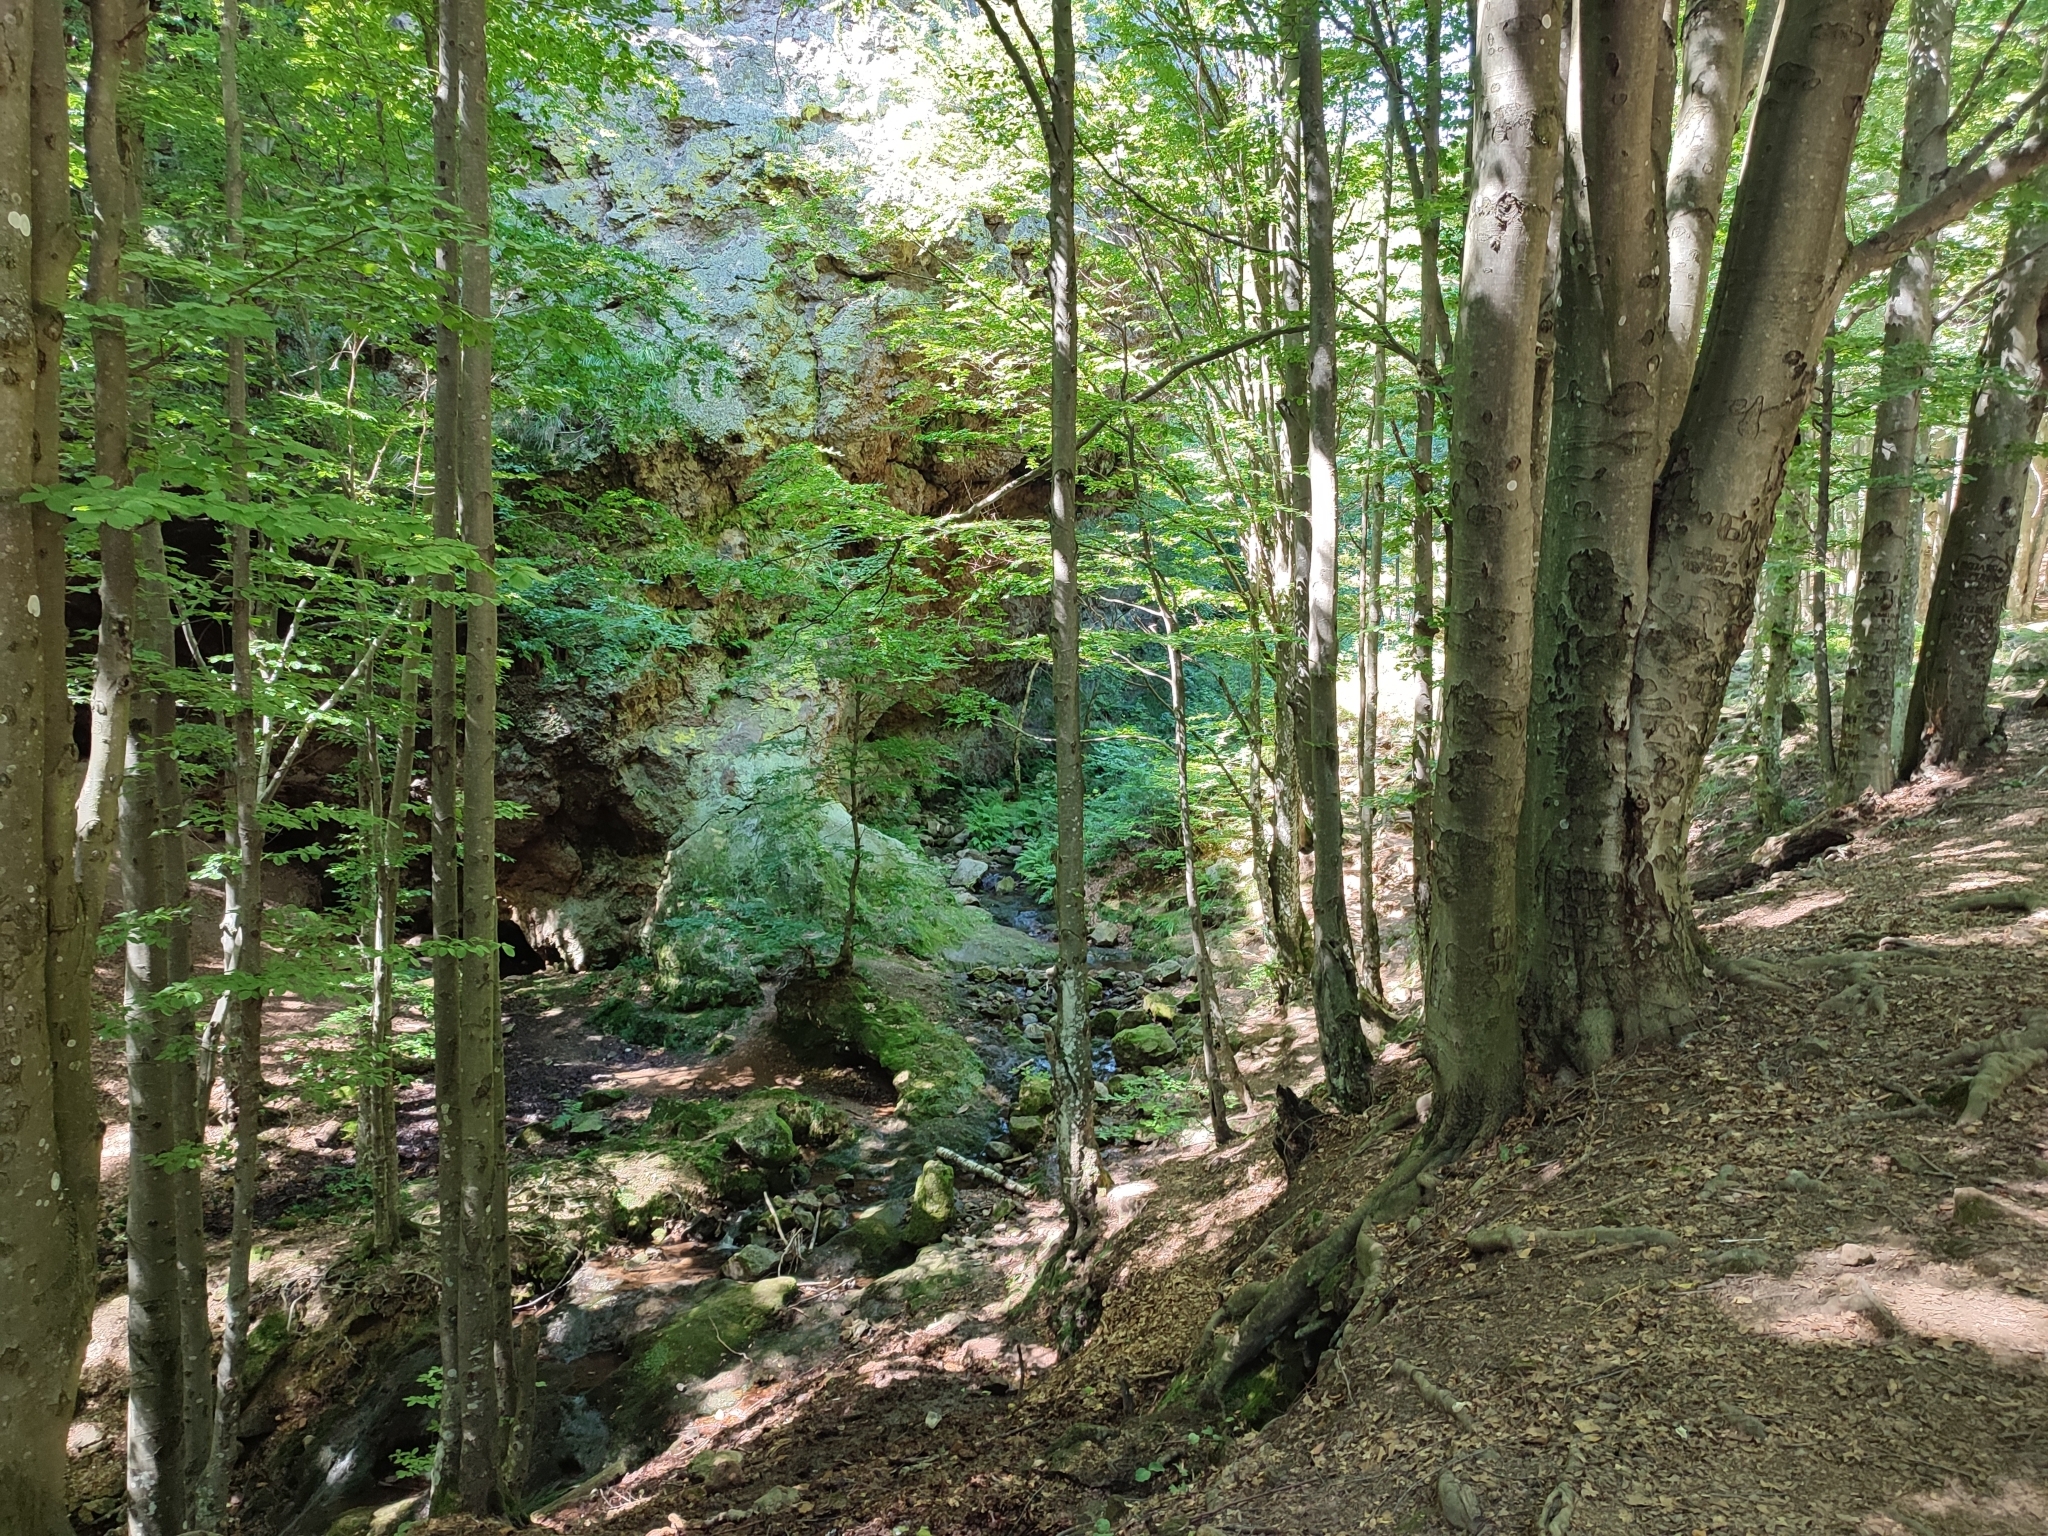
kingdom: Plantae
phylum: Tracheophyta
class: Magnoliopsida
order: Fagales
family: Fagaceae
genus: Fagus
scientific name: Fagus sylvatica
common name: Beech
